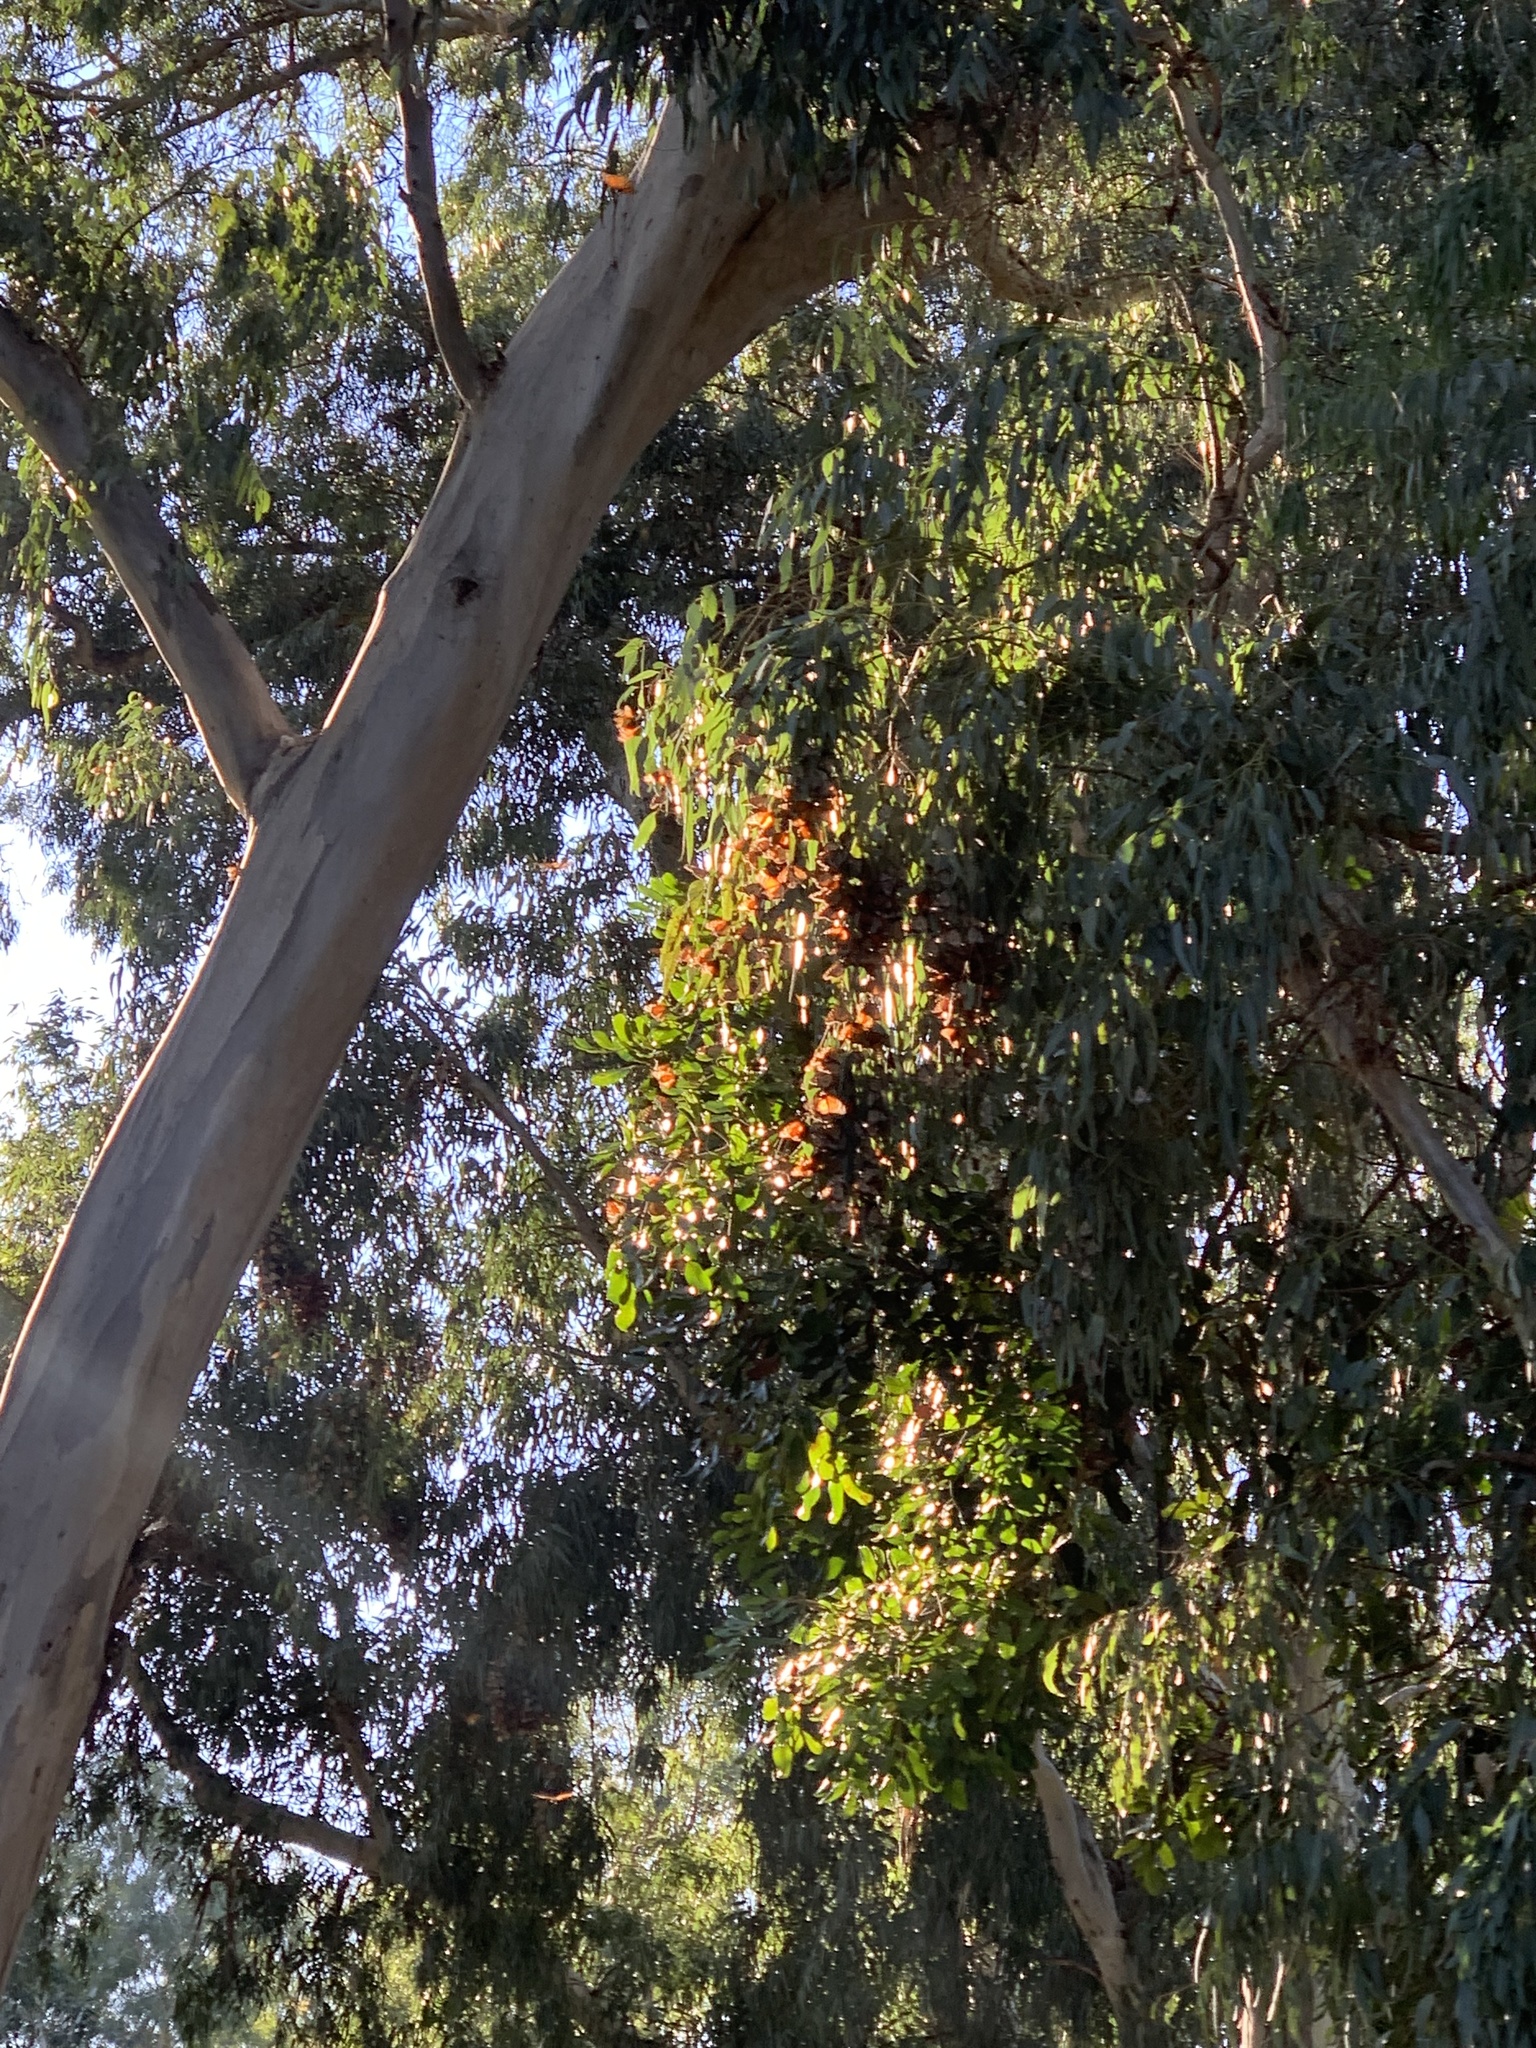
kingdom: Animalia
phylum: Arthropoda
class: Insecta
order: Lepidoptera
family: Nymphalidae
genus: Danaus
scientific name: Danaus plexippus
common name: Monarch
